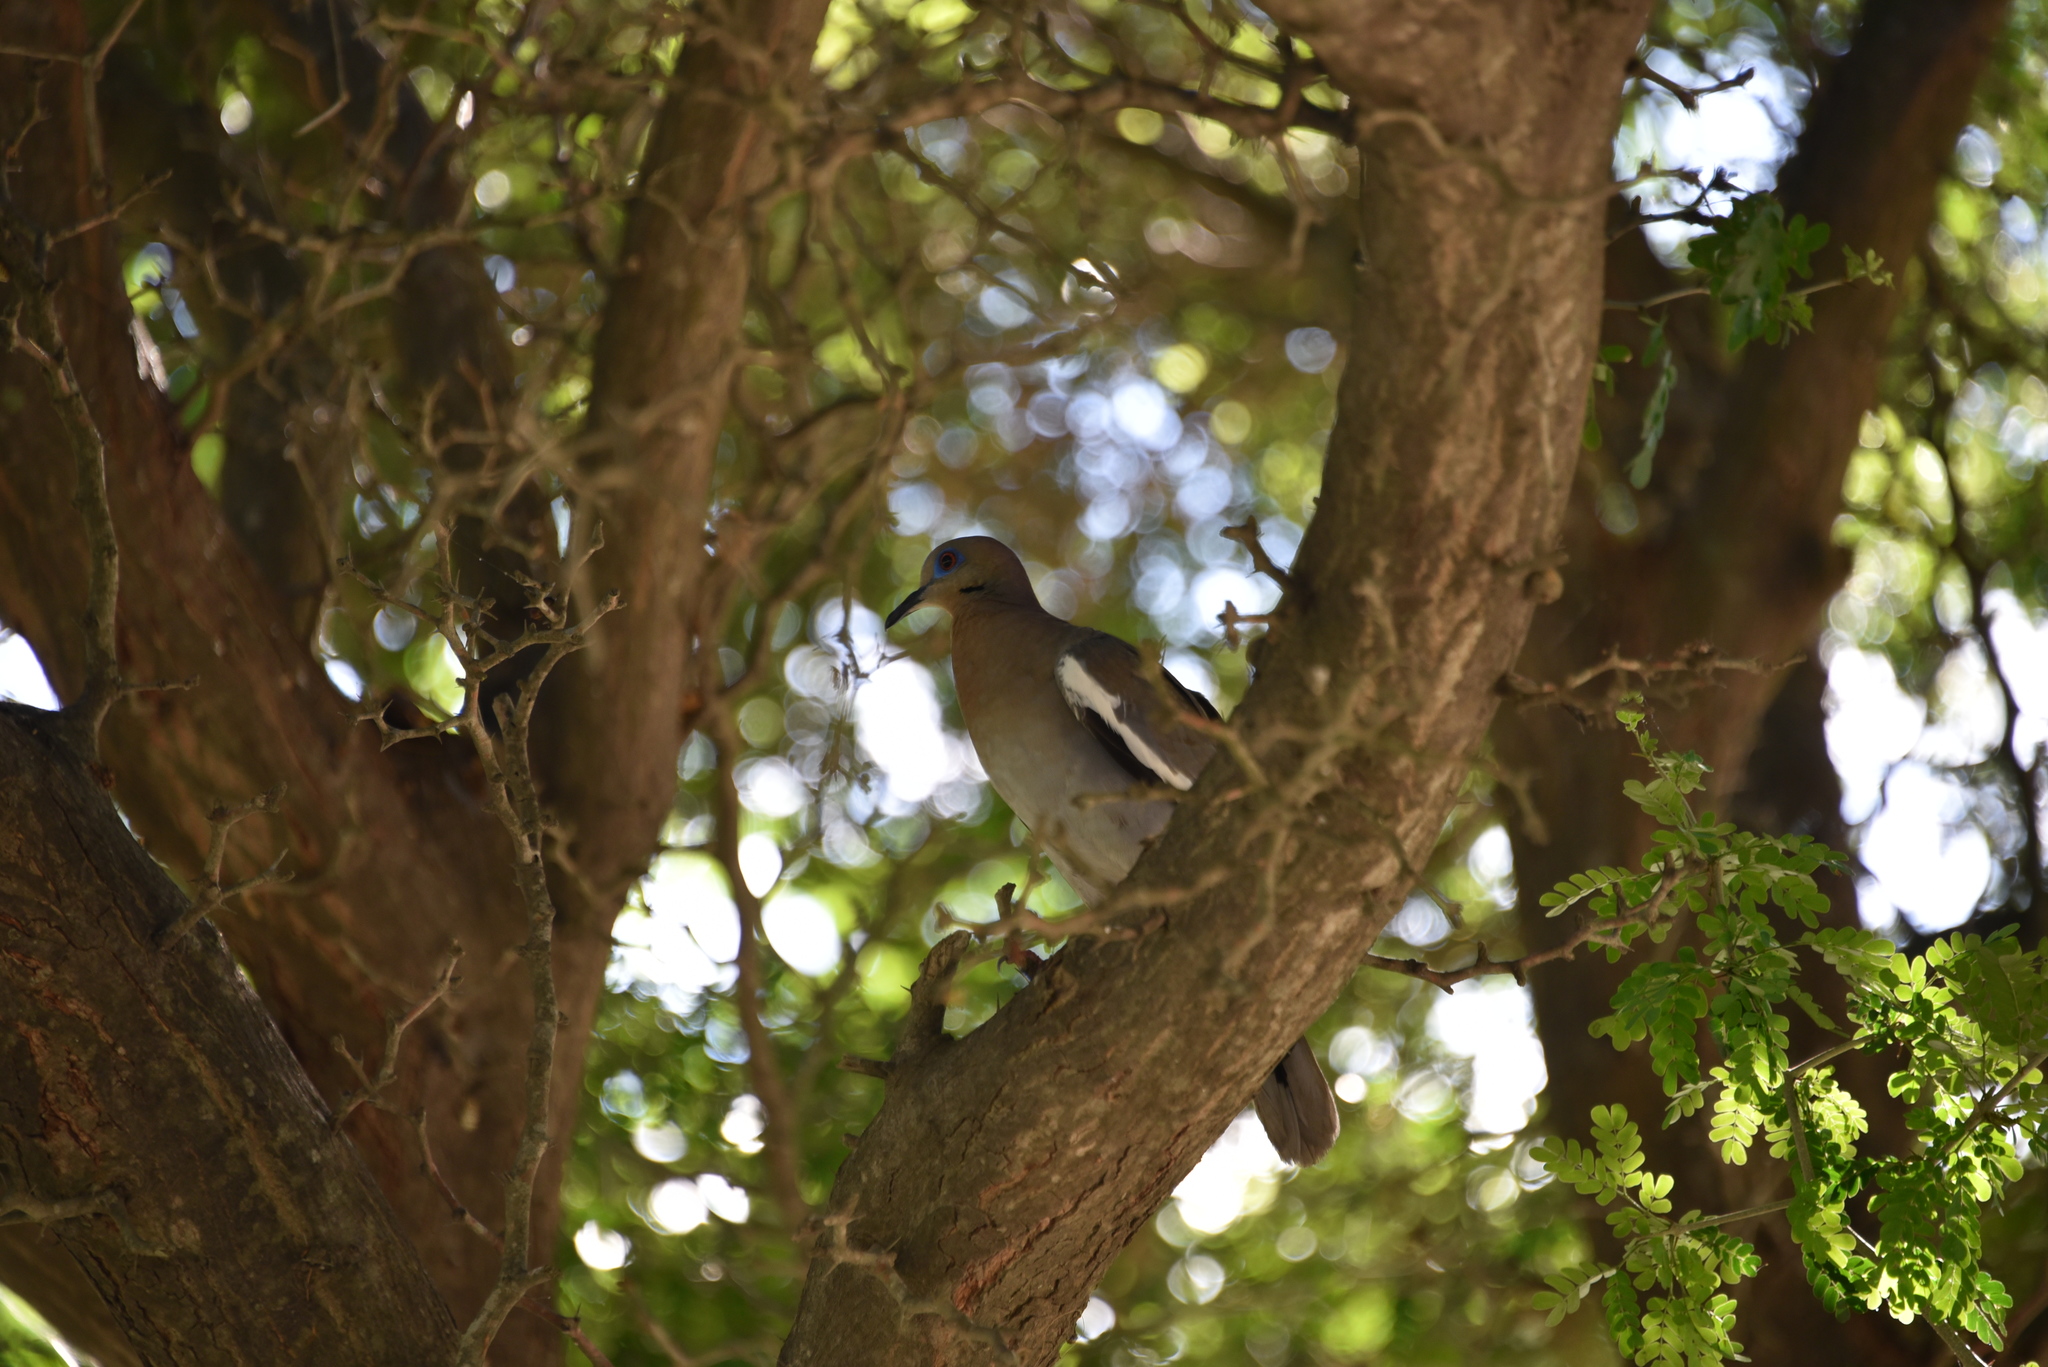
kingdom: Animalia
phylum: Chordata
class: Aves
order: Columbiformes
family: Columbidae
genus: Zenaida
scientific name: Zenaida asiatica
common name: White-winged dove
